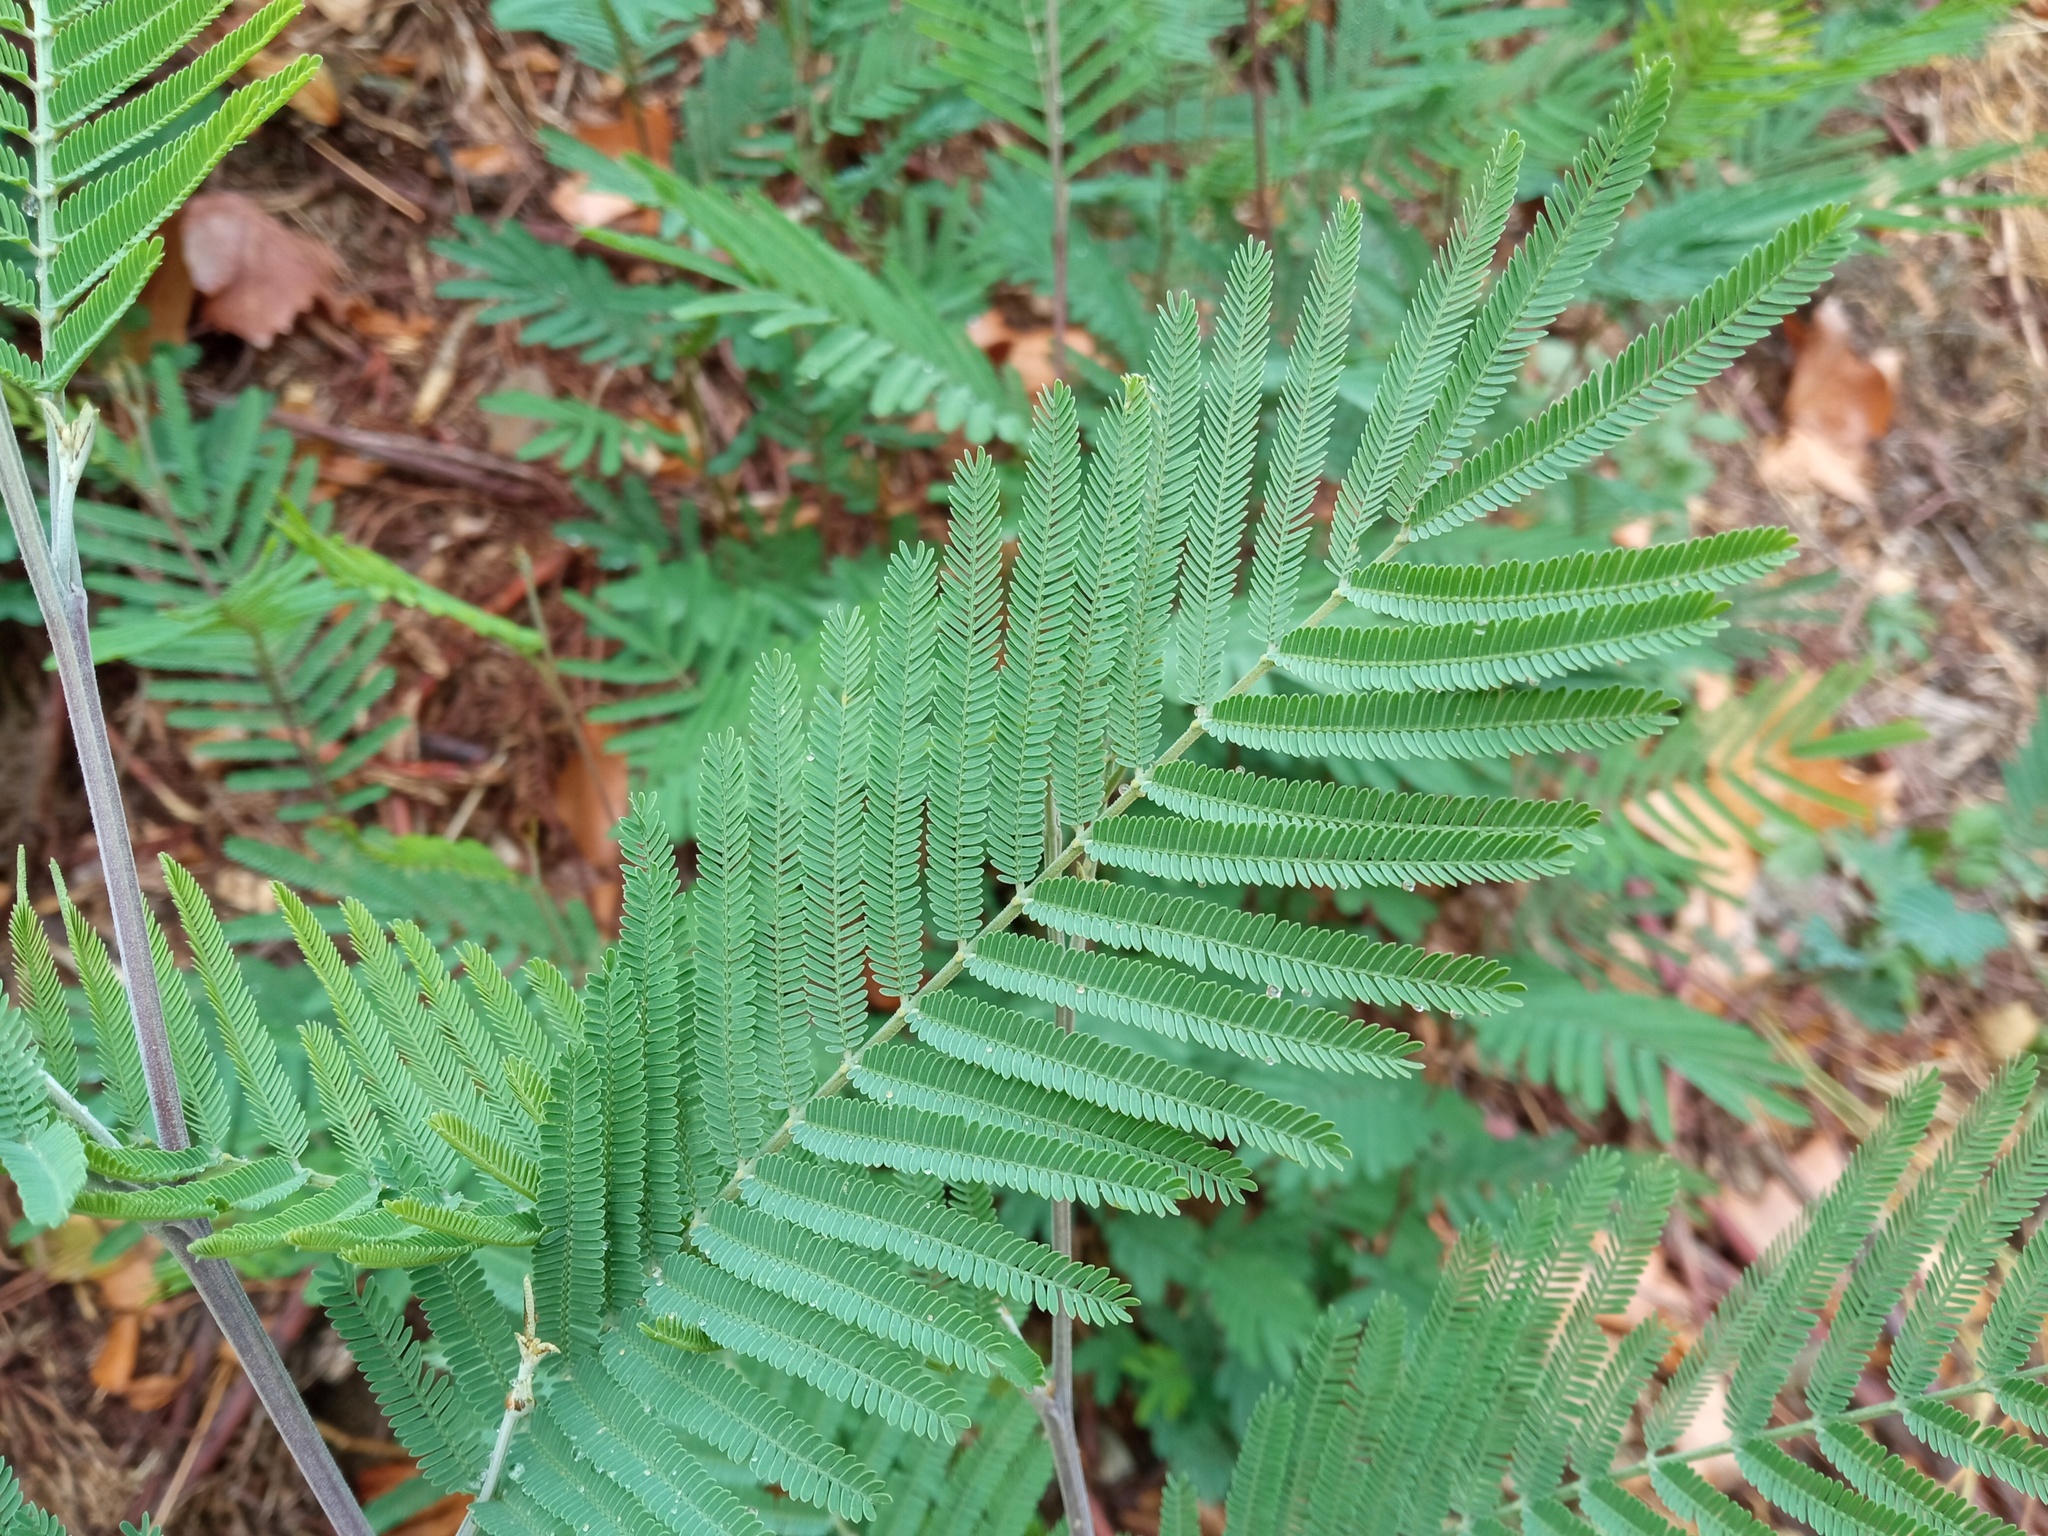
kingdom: Plantae
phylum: Tracheophyta
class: Magnoliopsida
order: Fabales
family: Fabaceae
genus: Acacia
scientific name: Acacia dealbata
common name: Silver wattle
